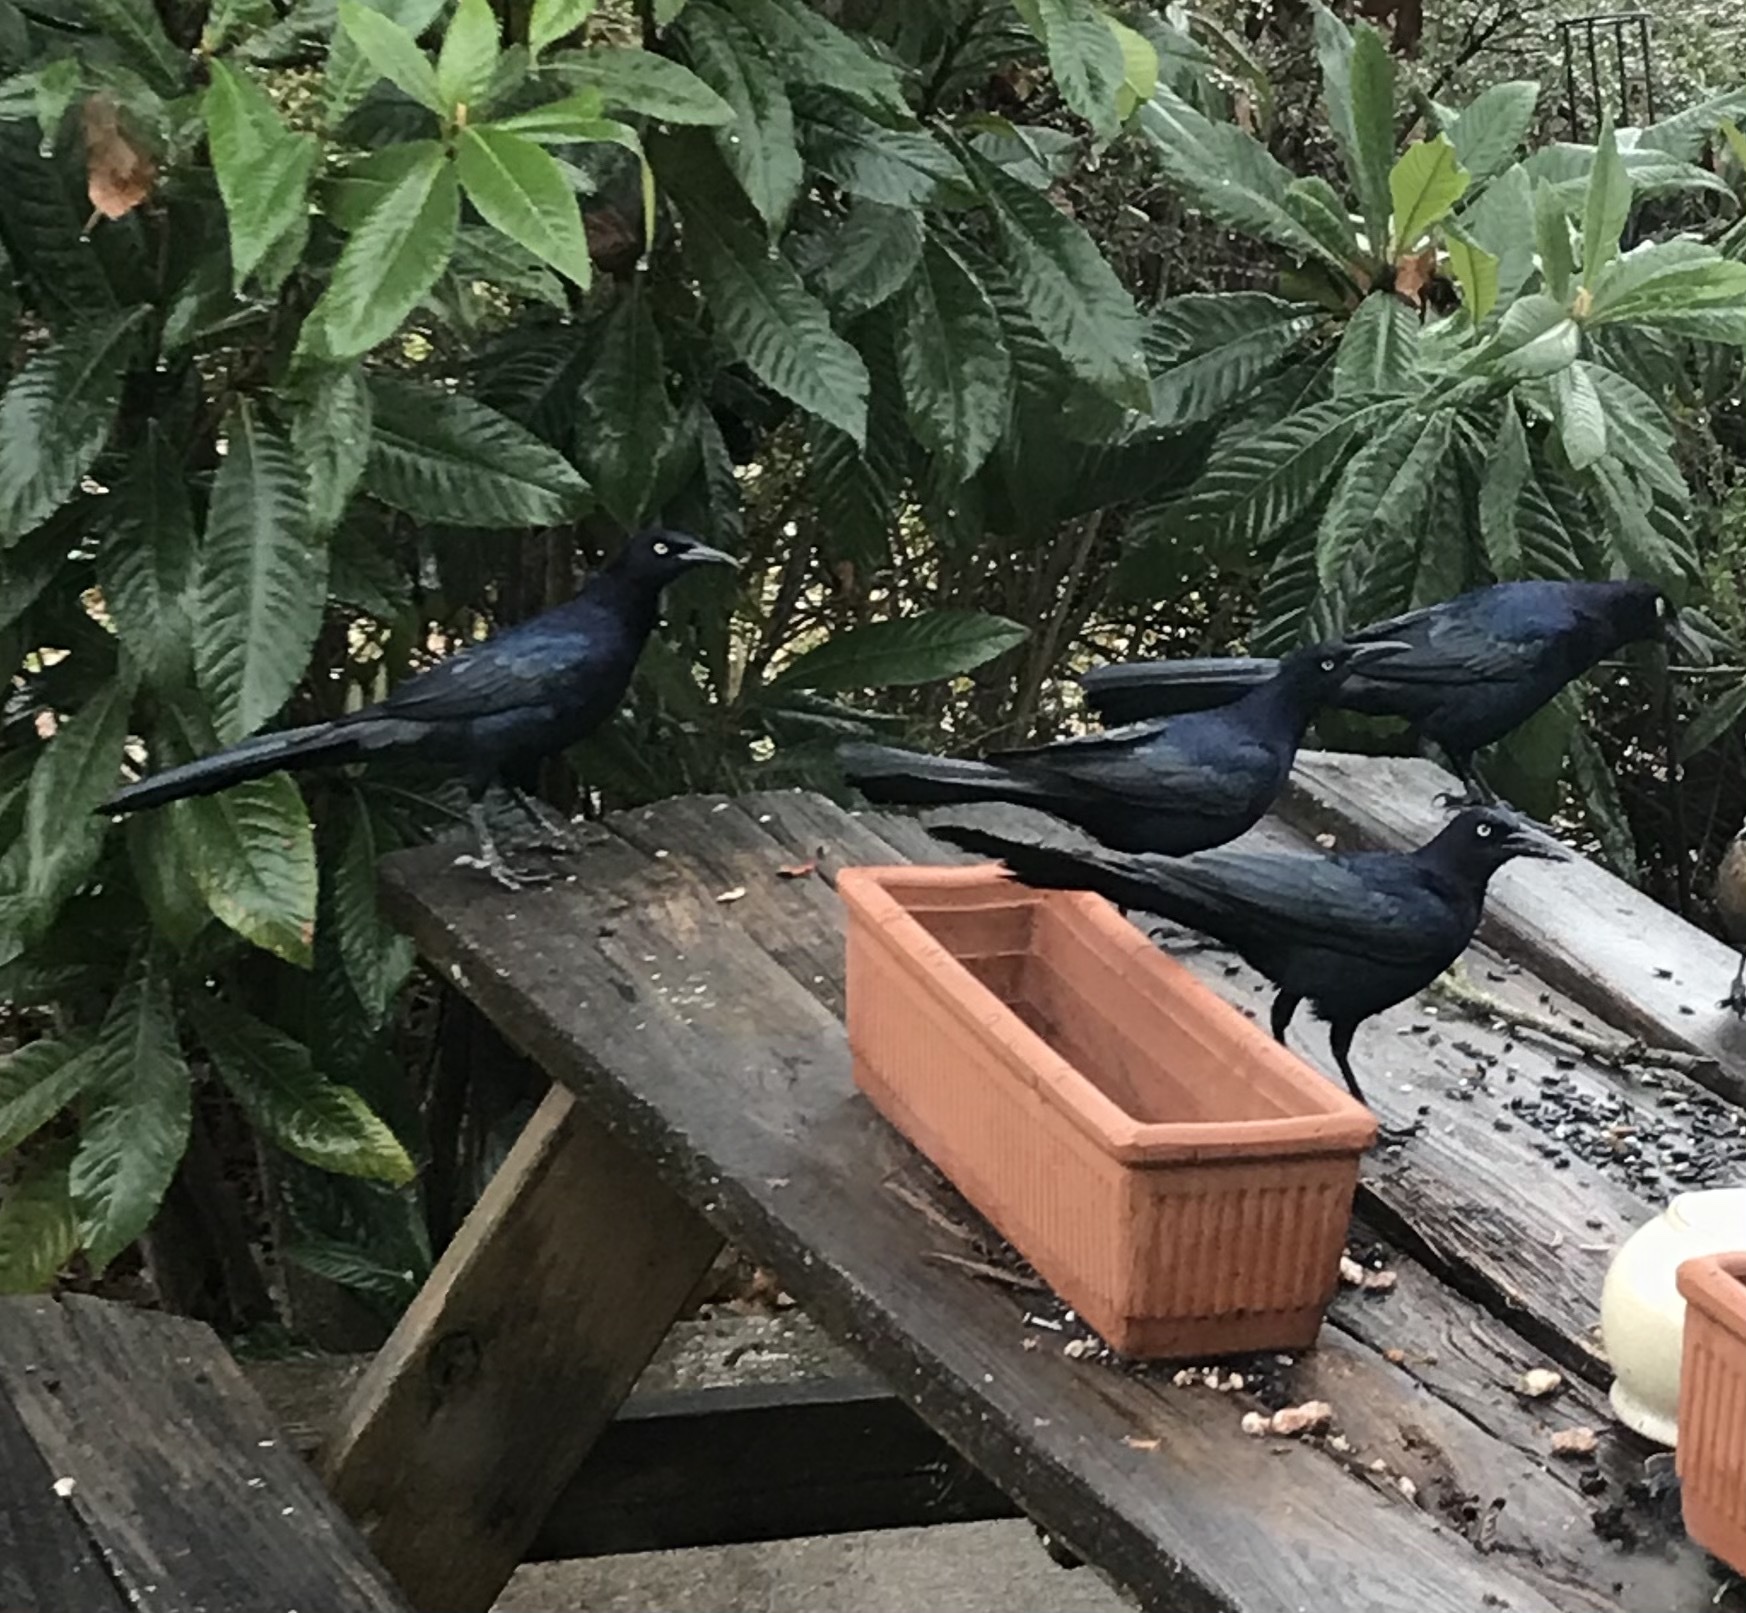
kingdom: Animalia
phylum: Chordata
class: Aves
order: Passeriformes
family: Icteridae
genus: Quiscalus
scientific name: Quiscalus mexicanus
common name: Great-tailed grackle
